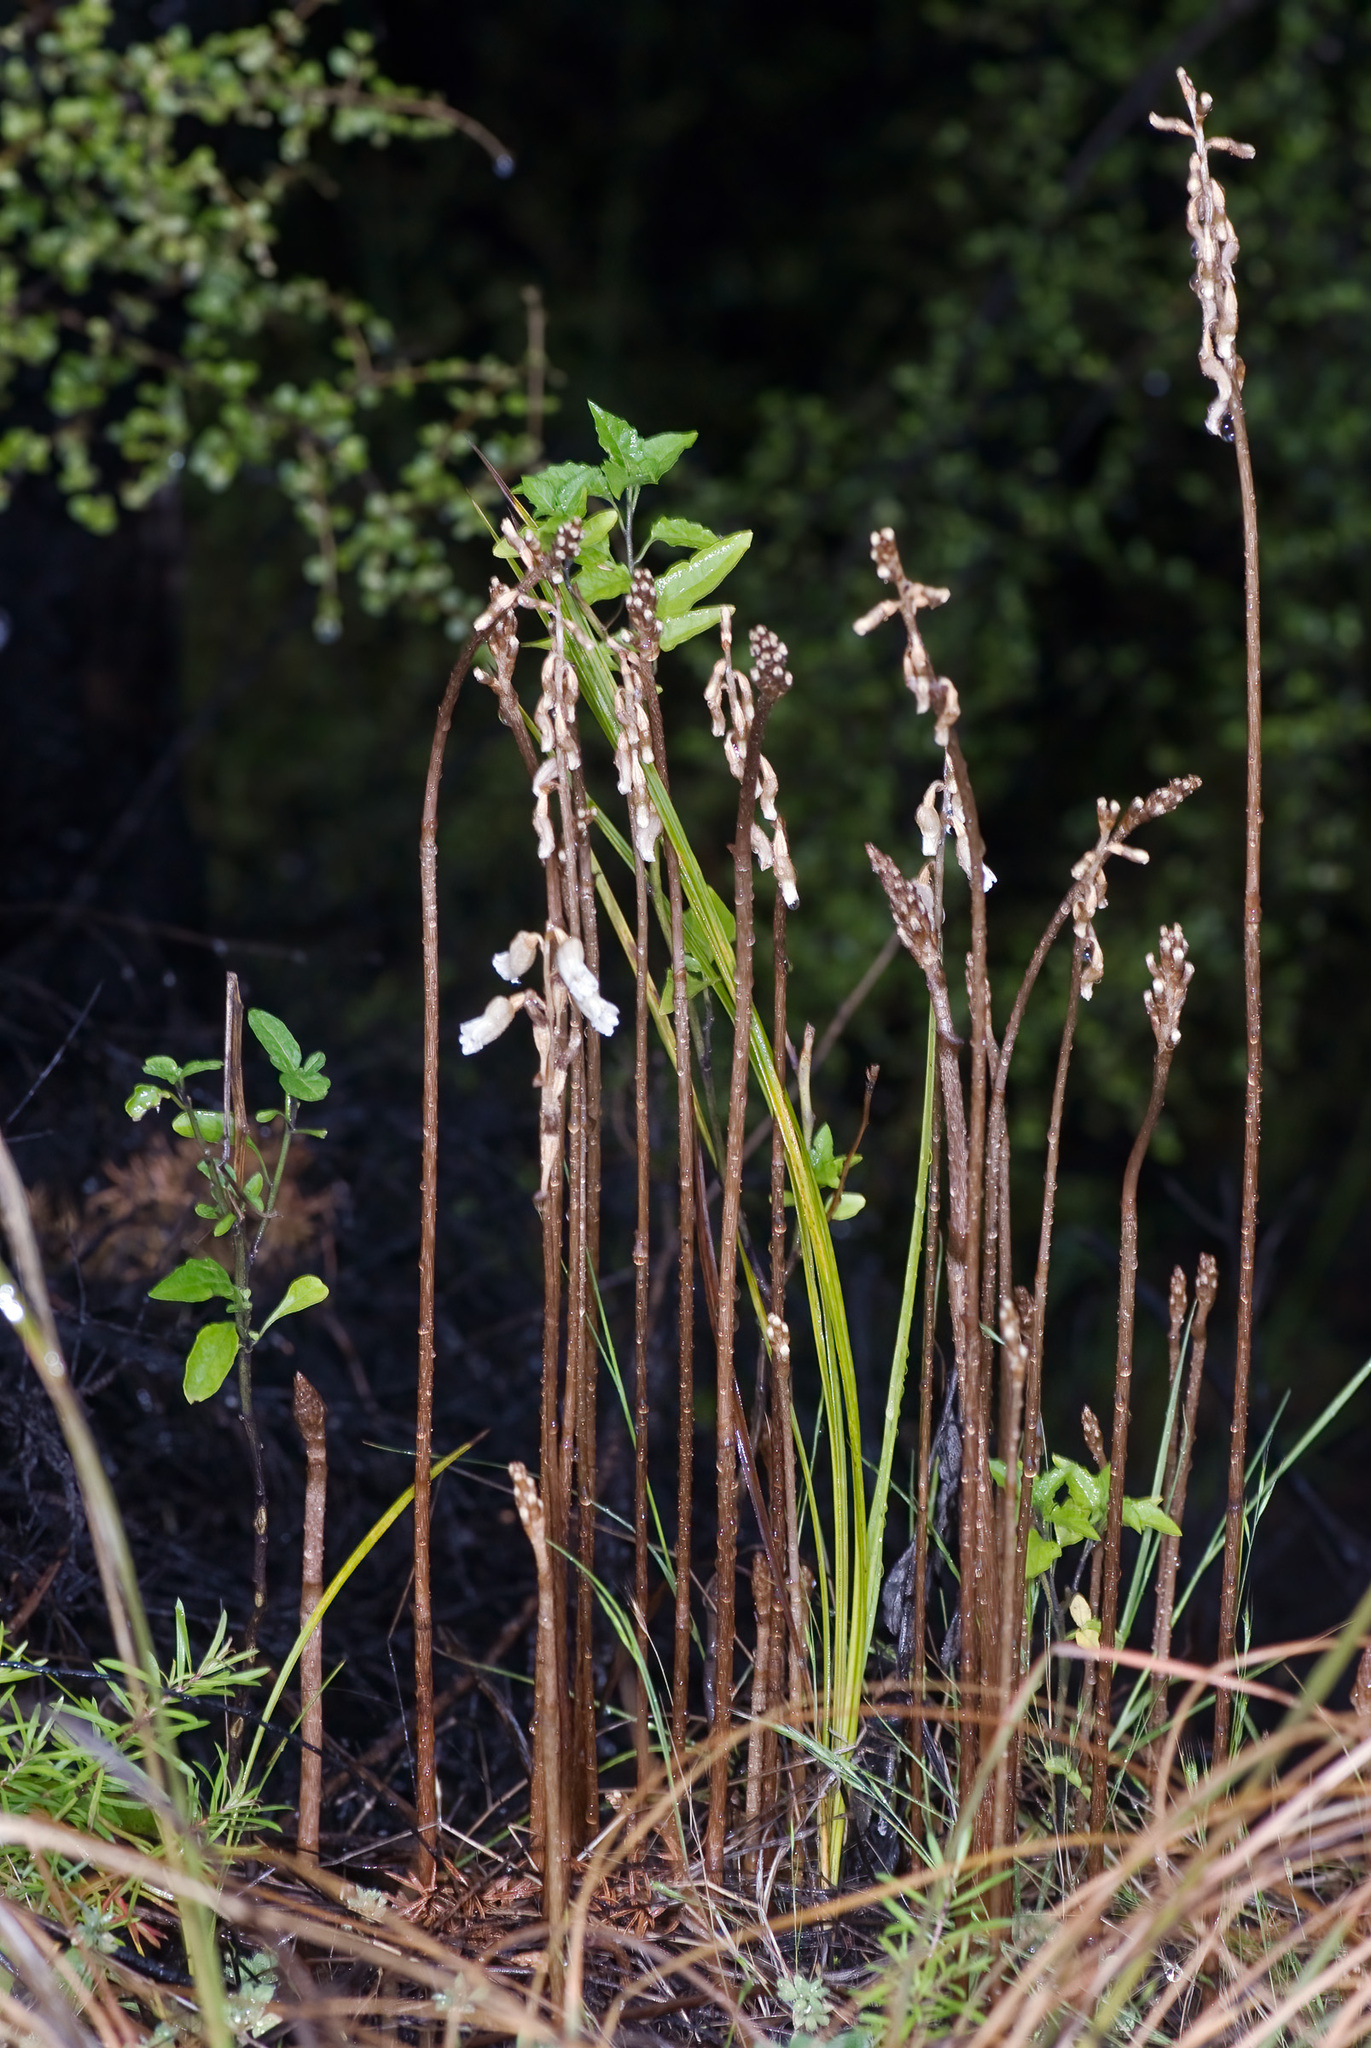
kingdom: Plantae
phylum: Tracheophyta
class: Liliopsida
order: Asparagales
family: Orchidaceae
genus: Gastrodia
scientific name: Gastrodia sesamoides
